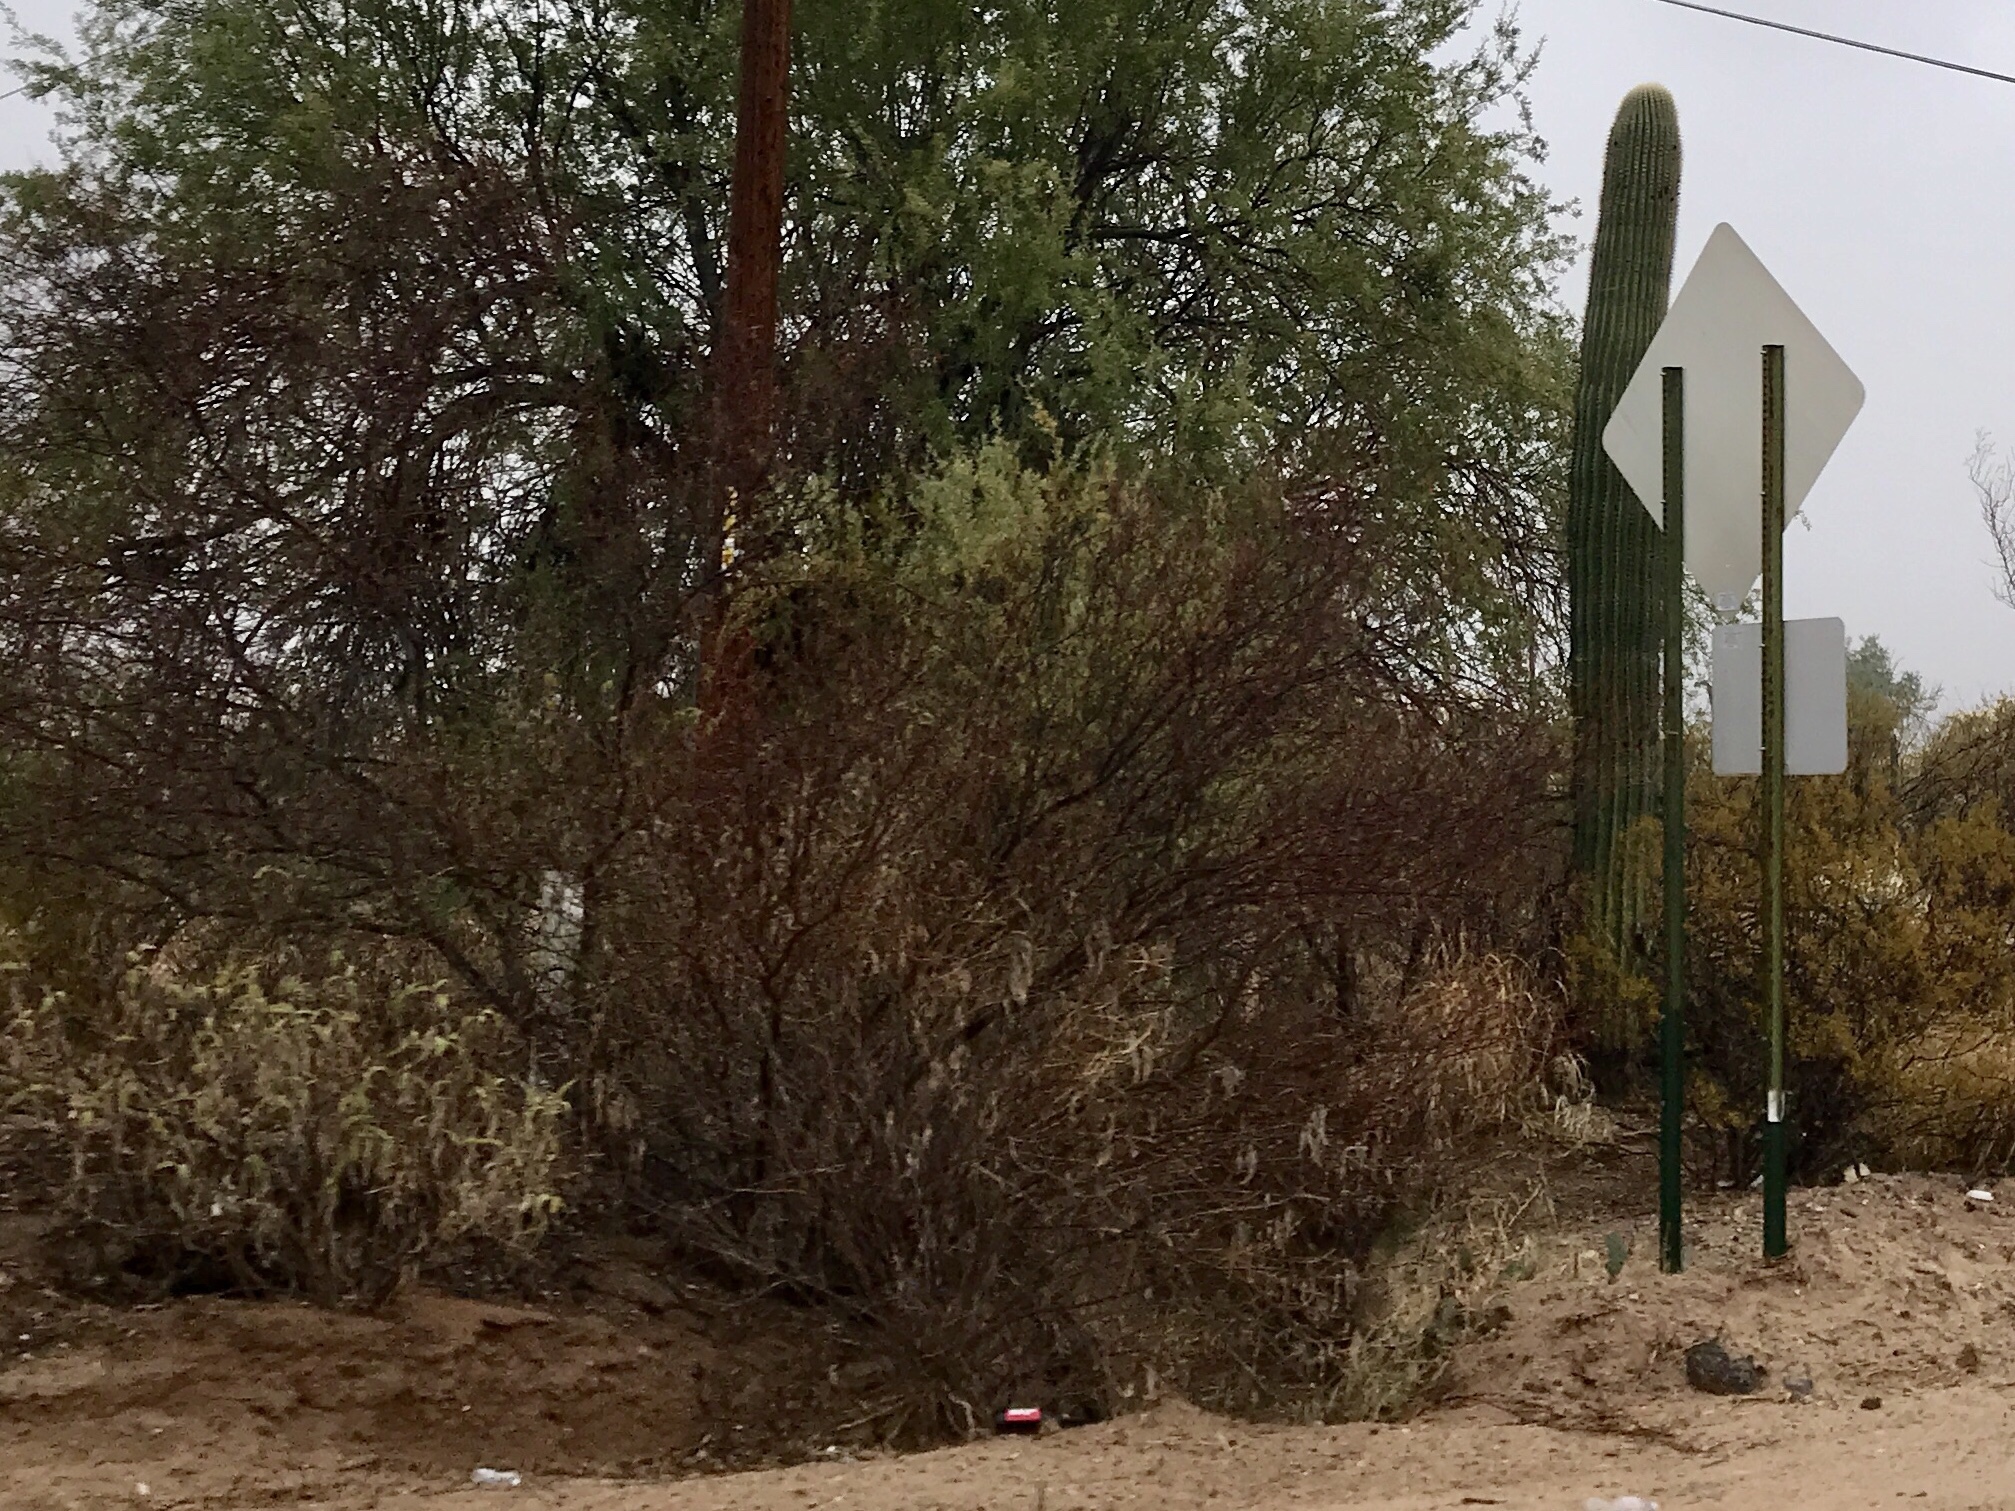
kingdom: Plantae
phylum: Tracheophyta
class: Magnoliopsida
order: Zygophyllales
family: Zygophyllaceae
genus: Larrea
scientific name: Larrea tridentata
